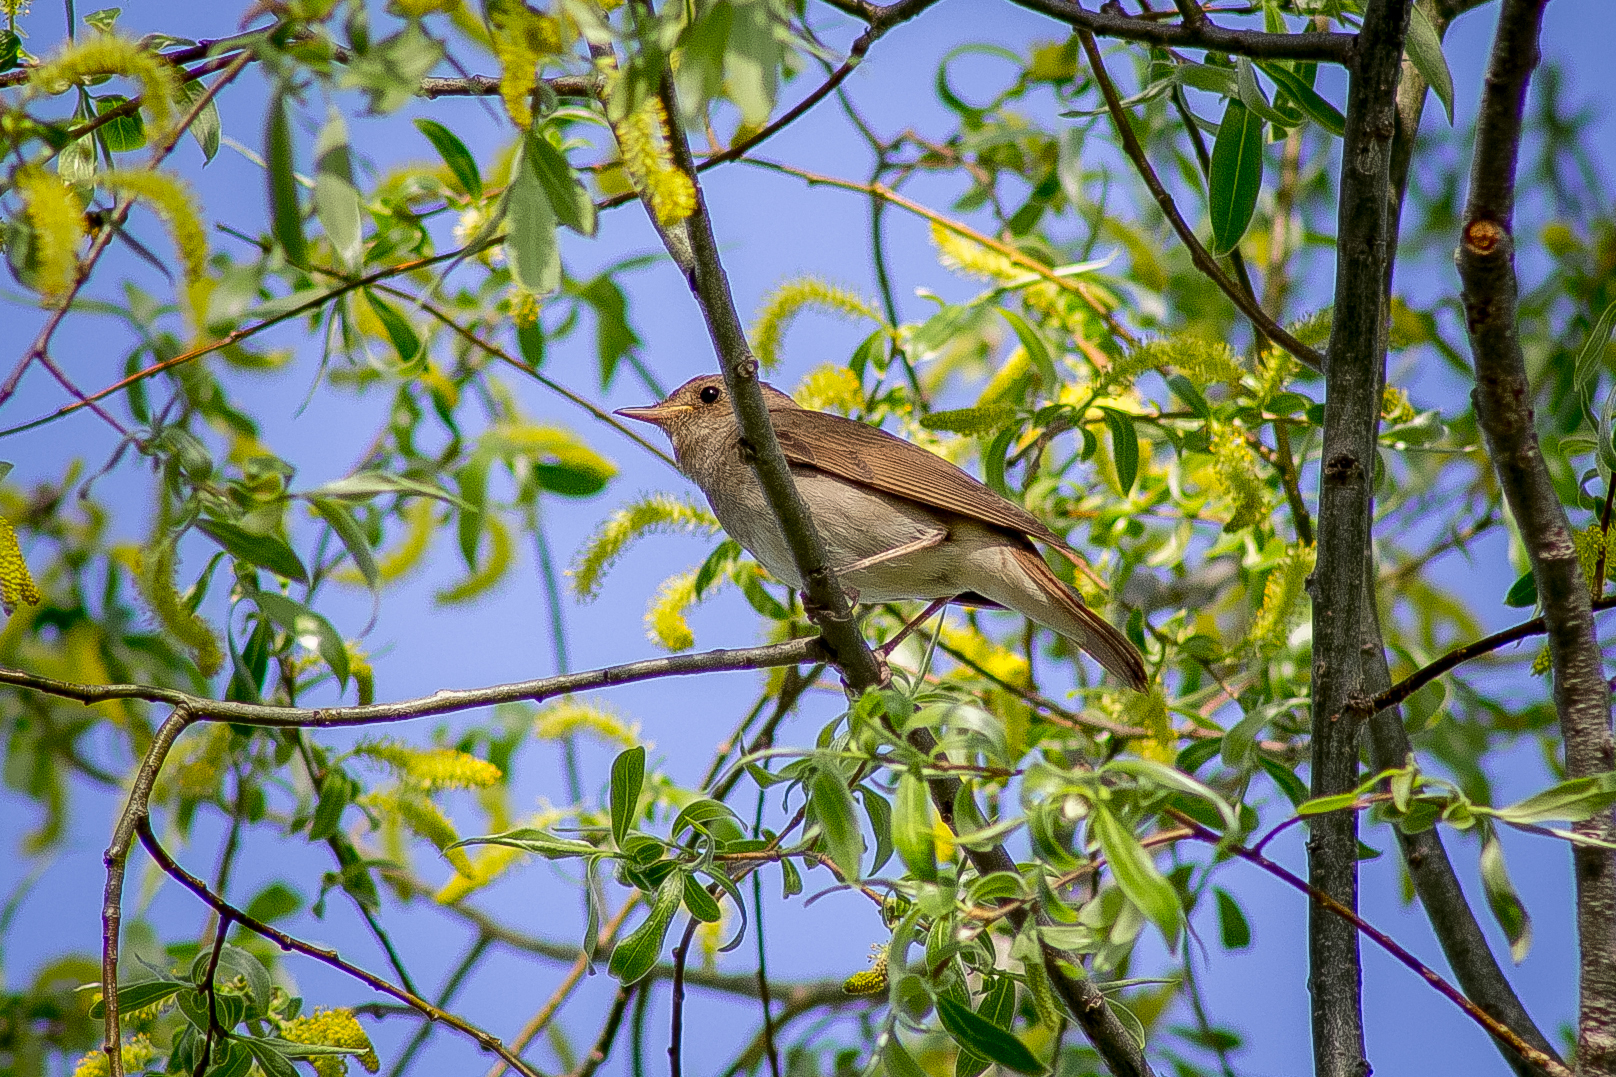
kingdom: Animalia
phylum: Chordata
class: Aves
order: Passeriformes
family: Muscicapidae
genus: Luscinia
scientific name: Luscinia luscinia
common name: Thrush nightingale
